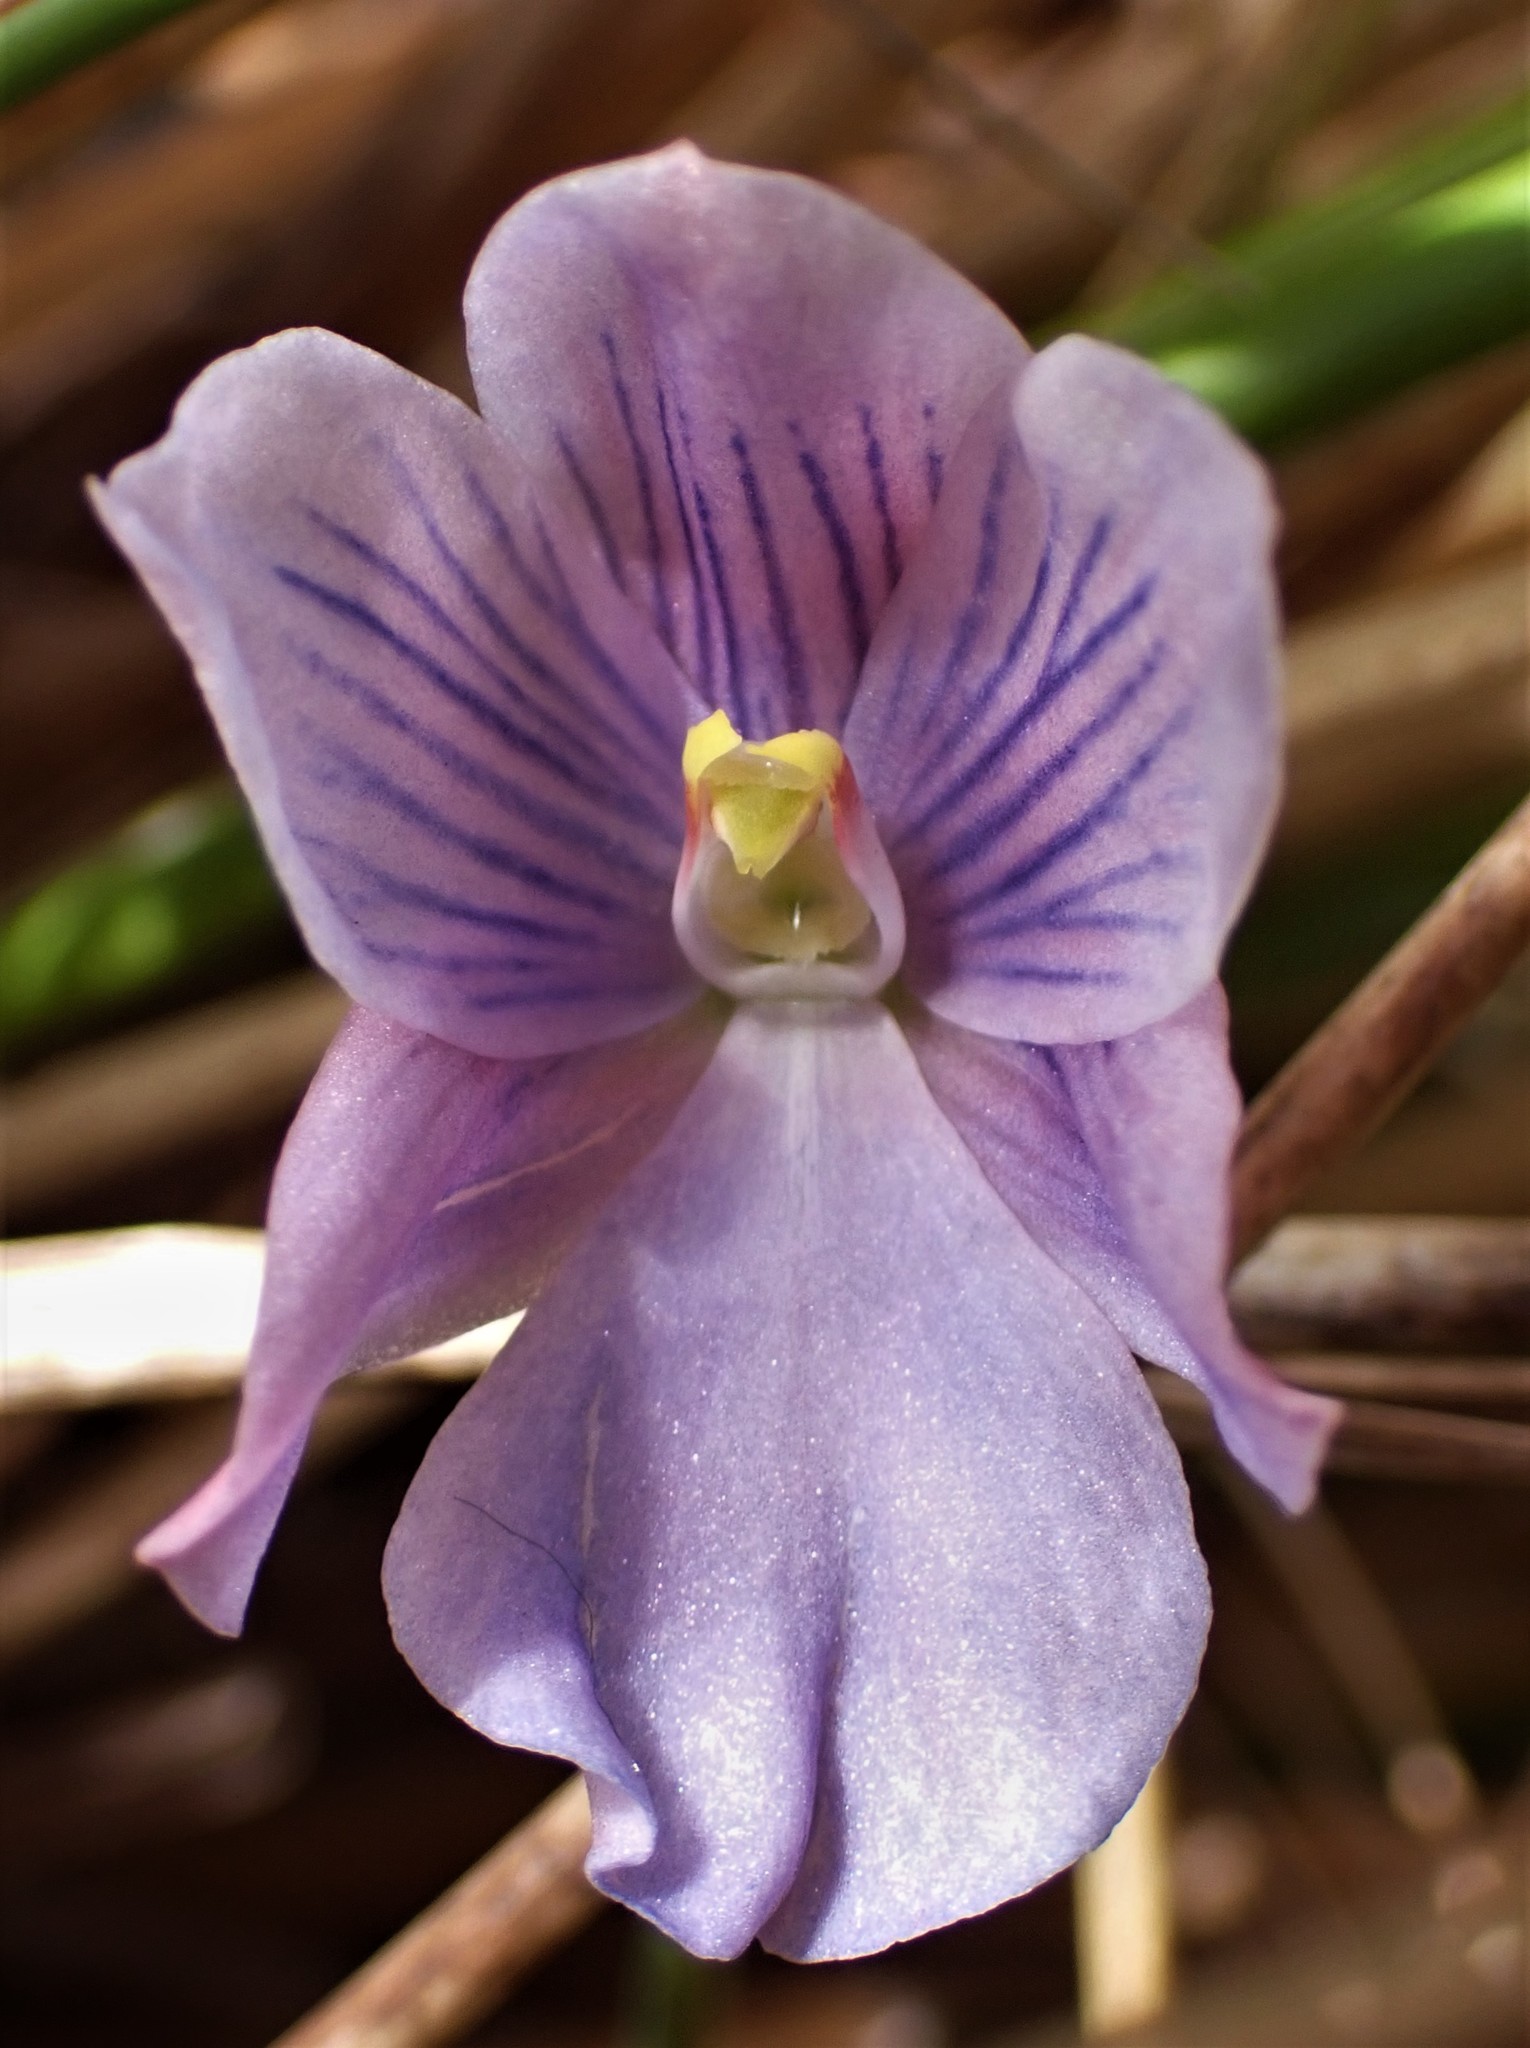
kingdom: Plantae
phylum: Tracheophyta
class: Liliopsida
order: Asparagales
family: Orchidaceae
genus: Thelymitra
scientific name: Thelymitra cyanea
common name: Blue sun-orchid
